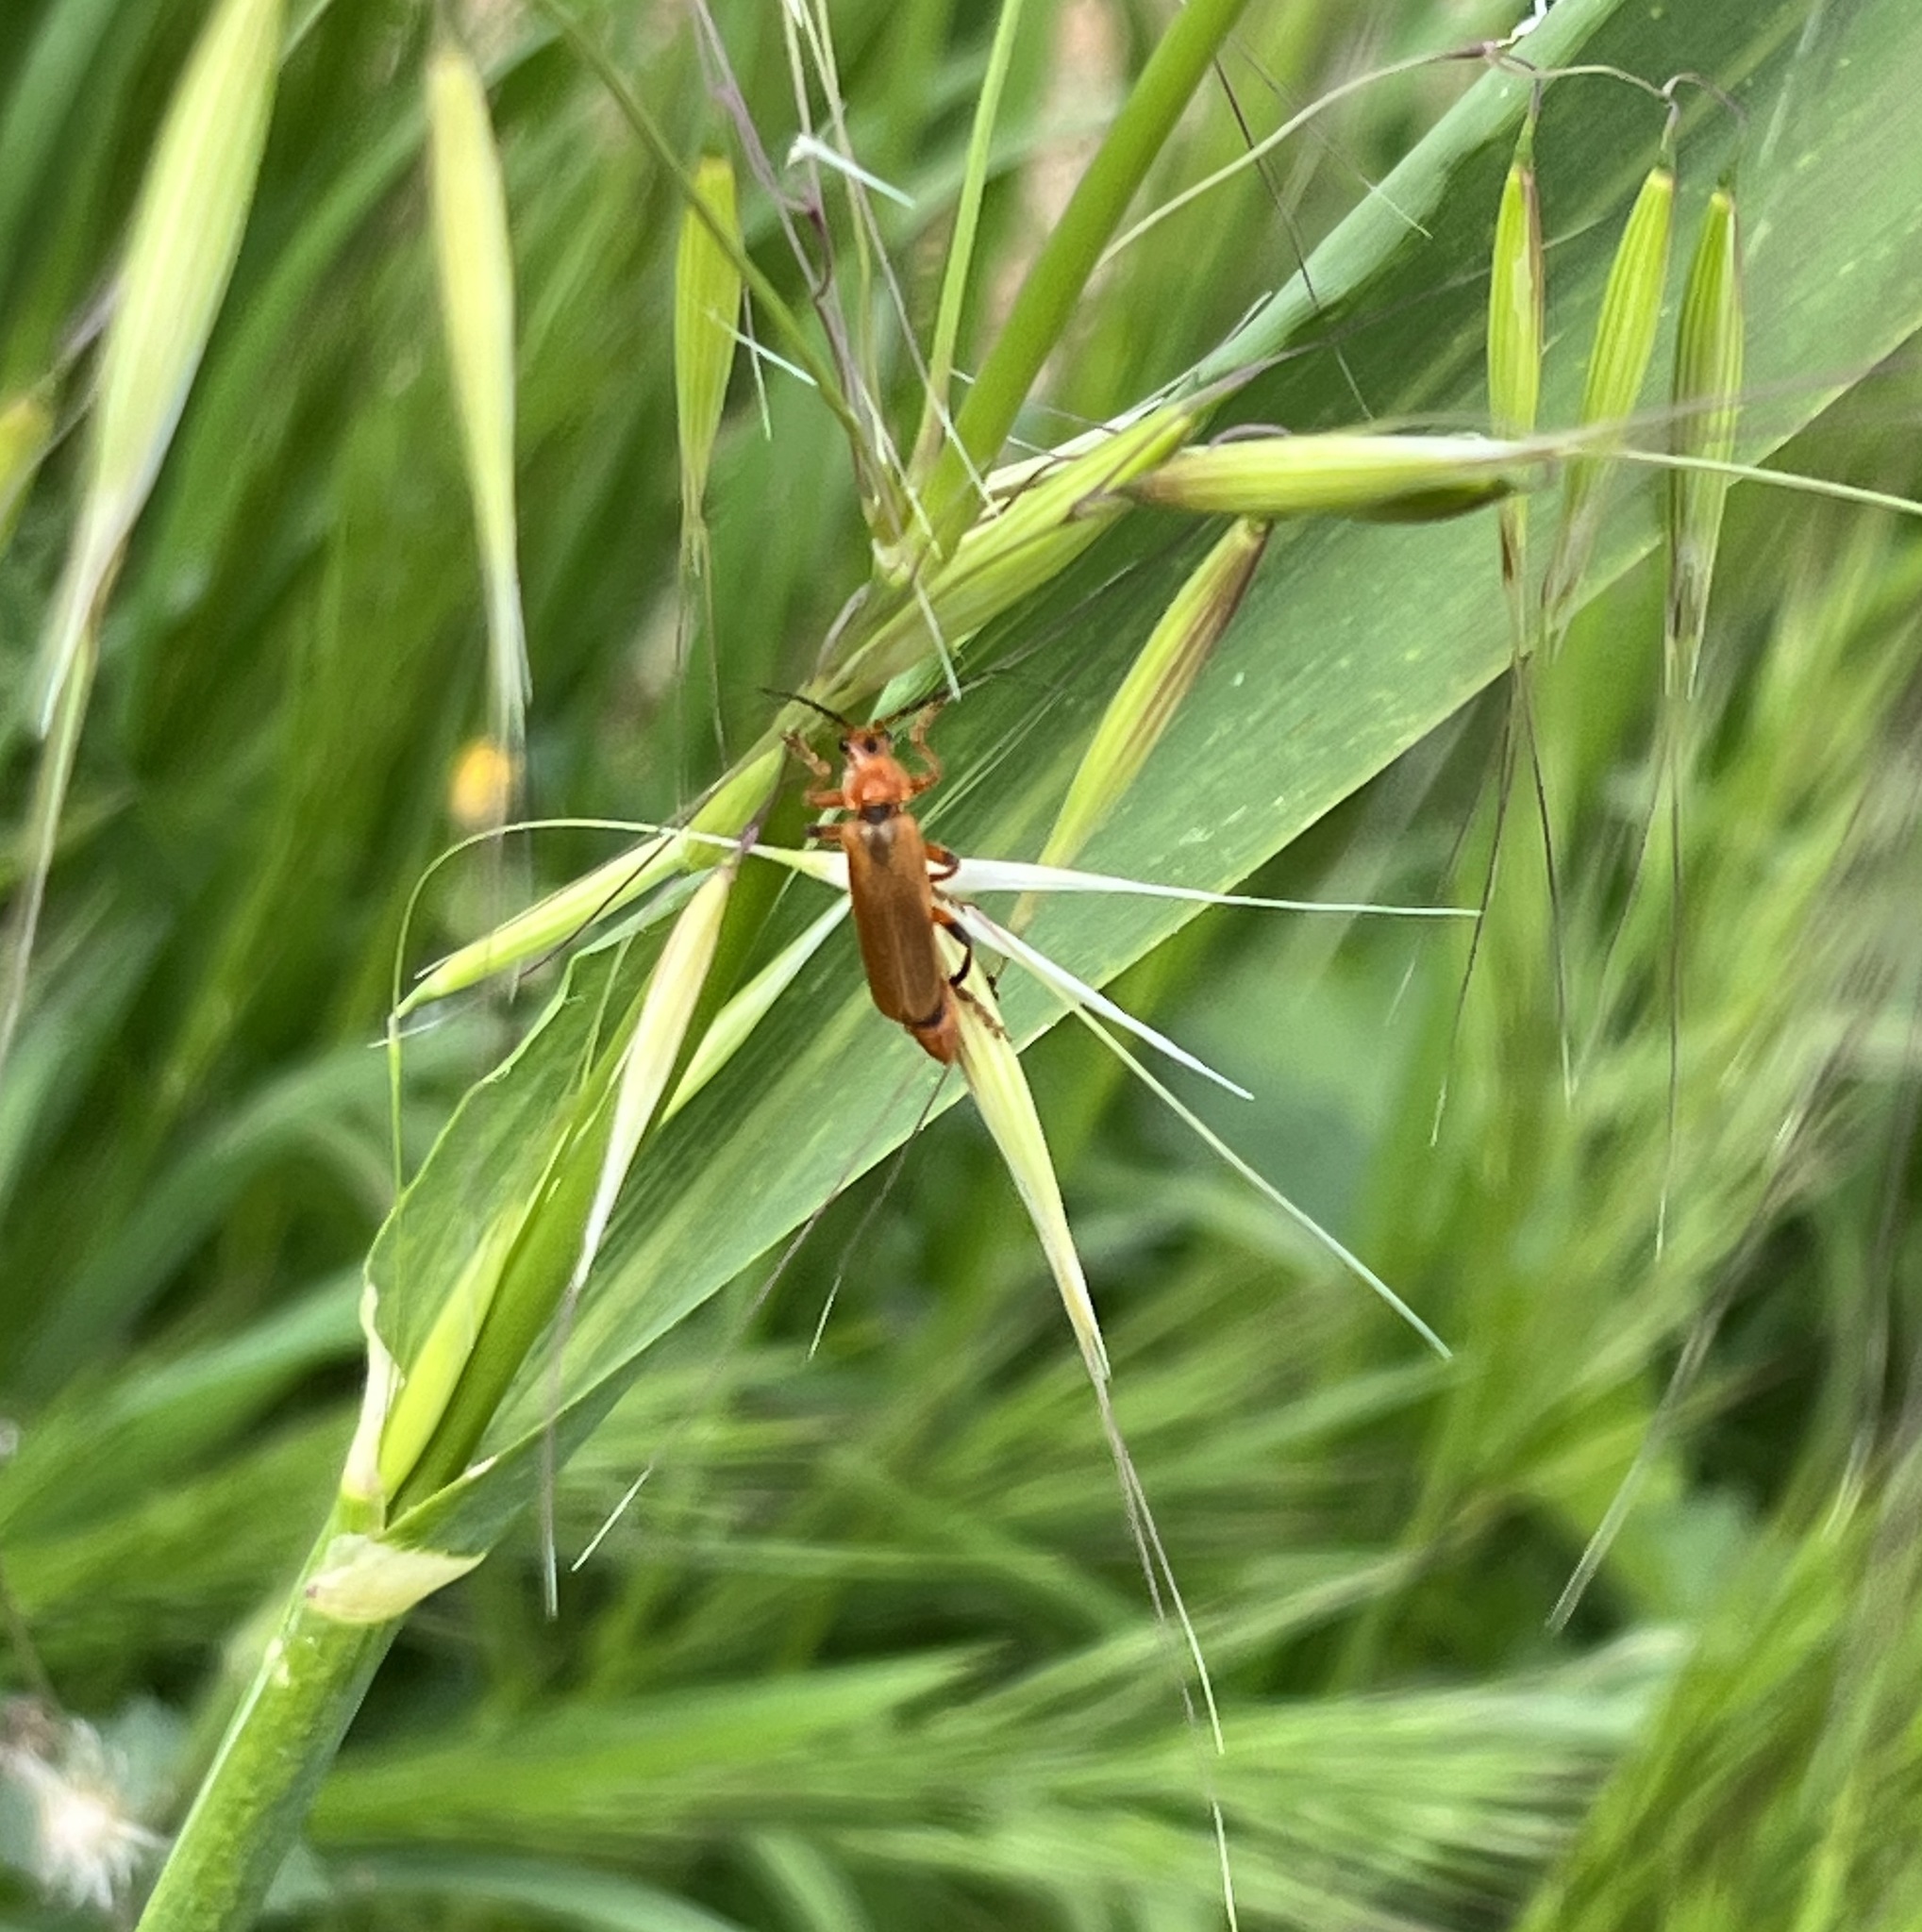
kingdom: Animalia
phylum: Arthropoda
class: Insecta
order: Coleoptera
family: Cantharidae
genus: Cantharis
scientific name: Cantharis melaspoides
